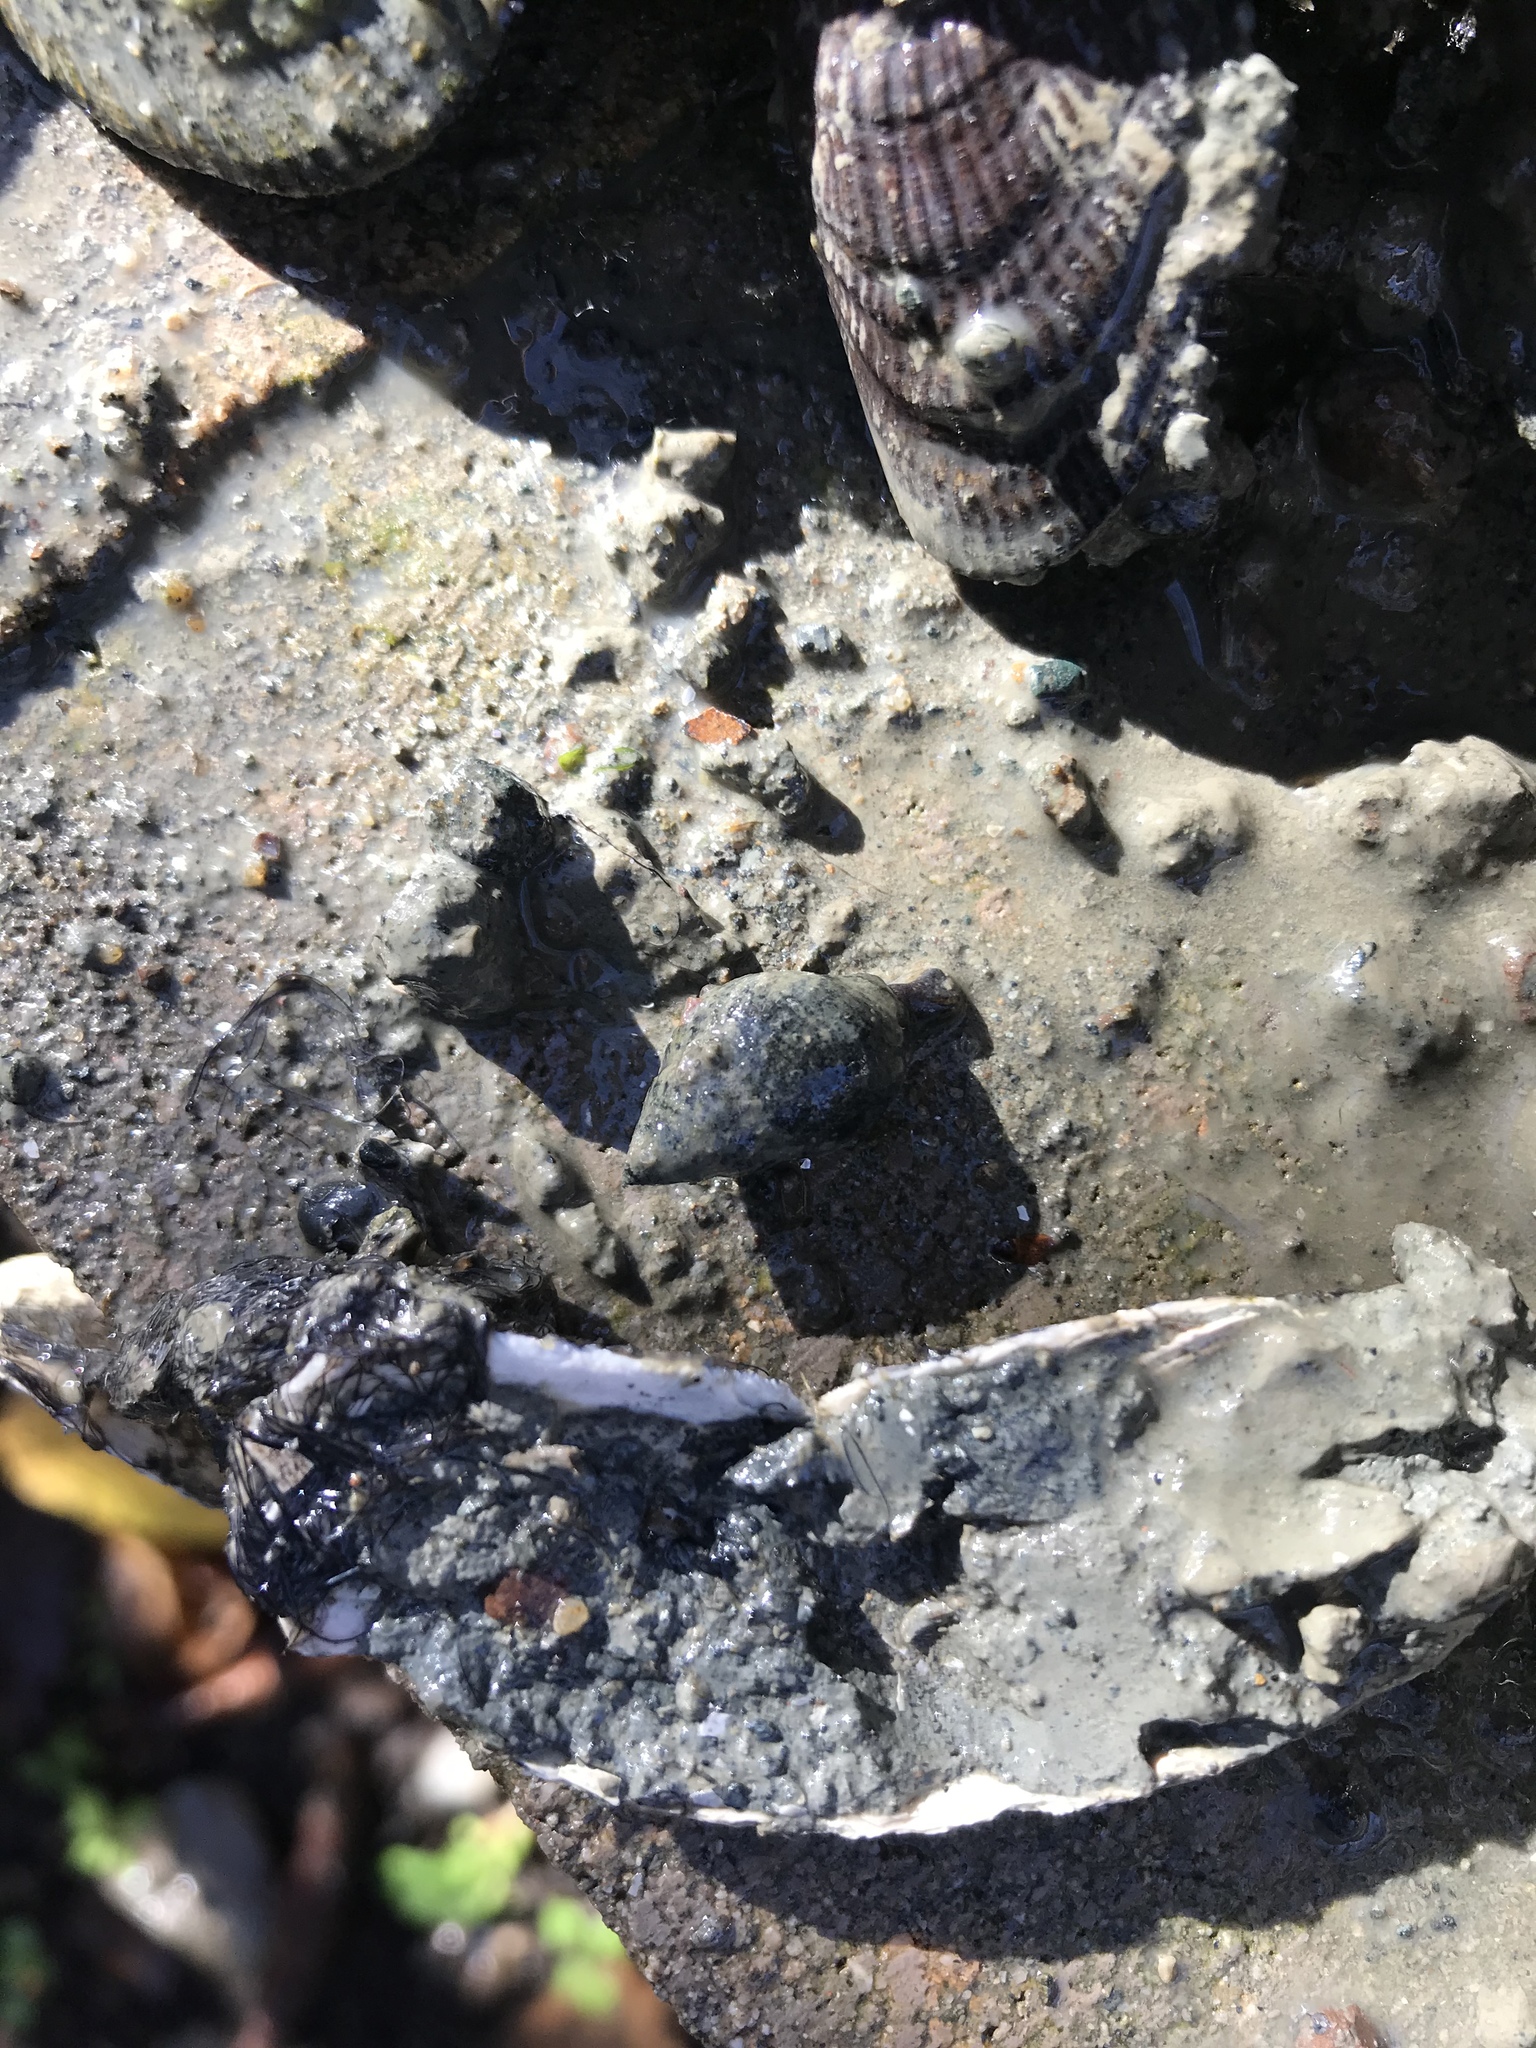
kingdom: Animalia
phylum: Mollusca
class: Gastropoda
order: Neogastropoda
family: Nassariidae
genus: Ilyanassa
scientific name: Ilyanassa obsoleta
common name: Eastern mudsnail
